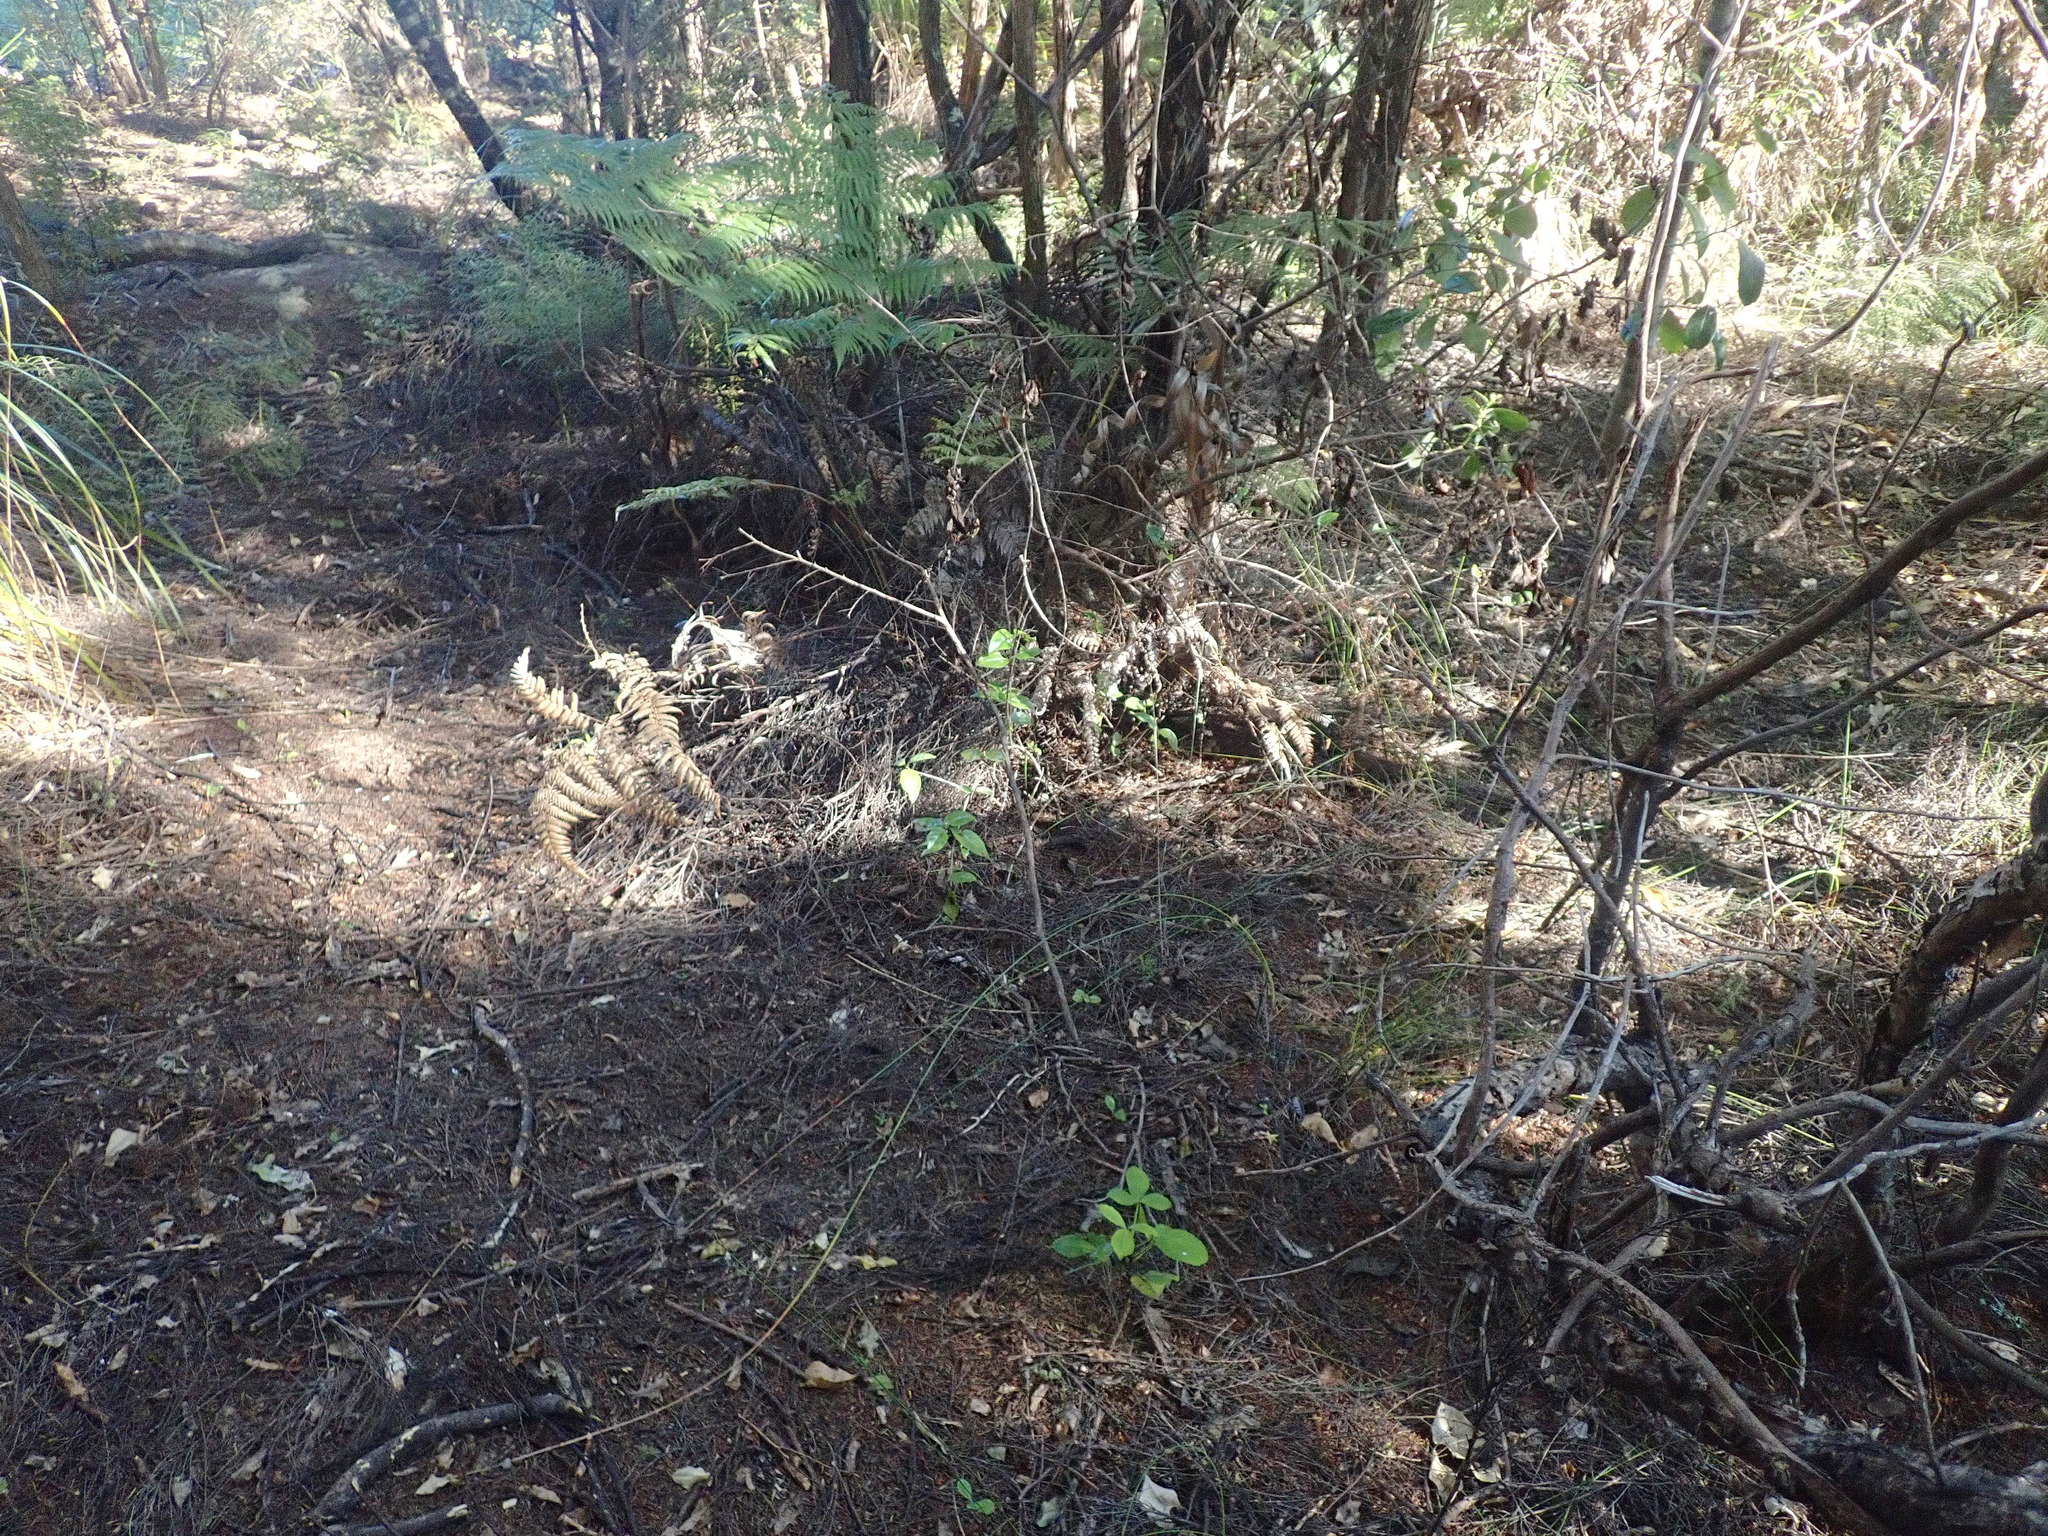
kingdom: Plantae
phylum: Tracheophyta
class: Polypodiopsida
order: Cyatheales
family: Cyatheaceae
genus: Alsophila
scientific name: Alsophila dealbata
